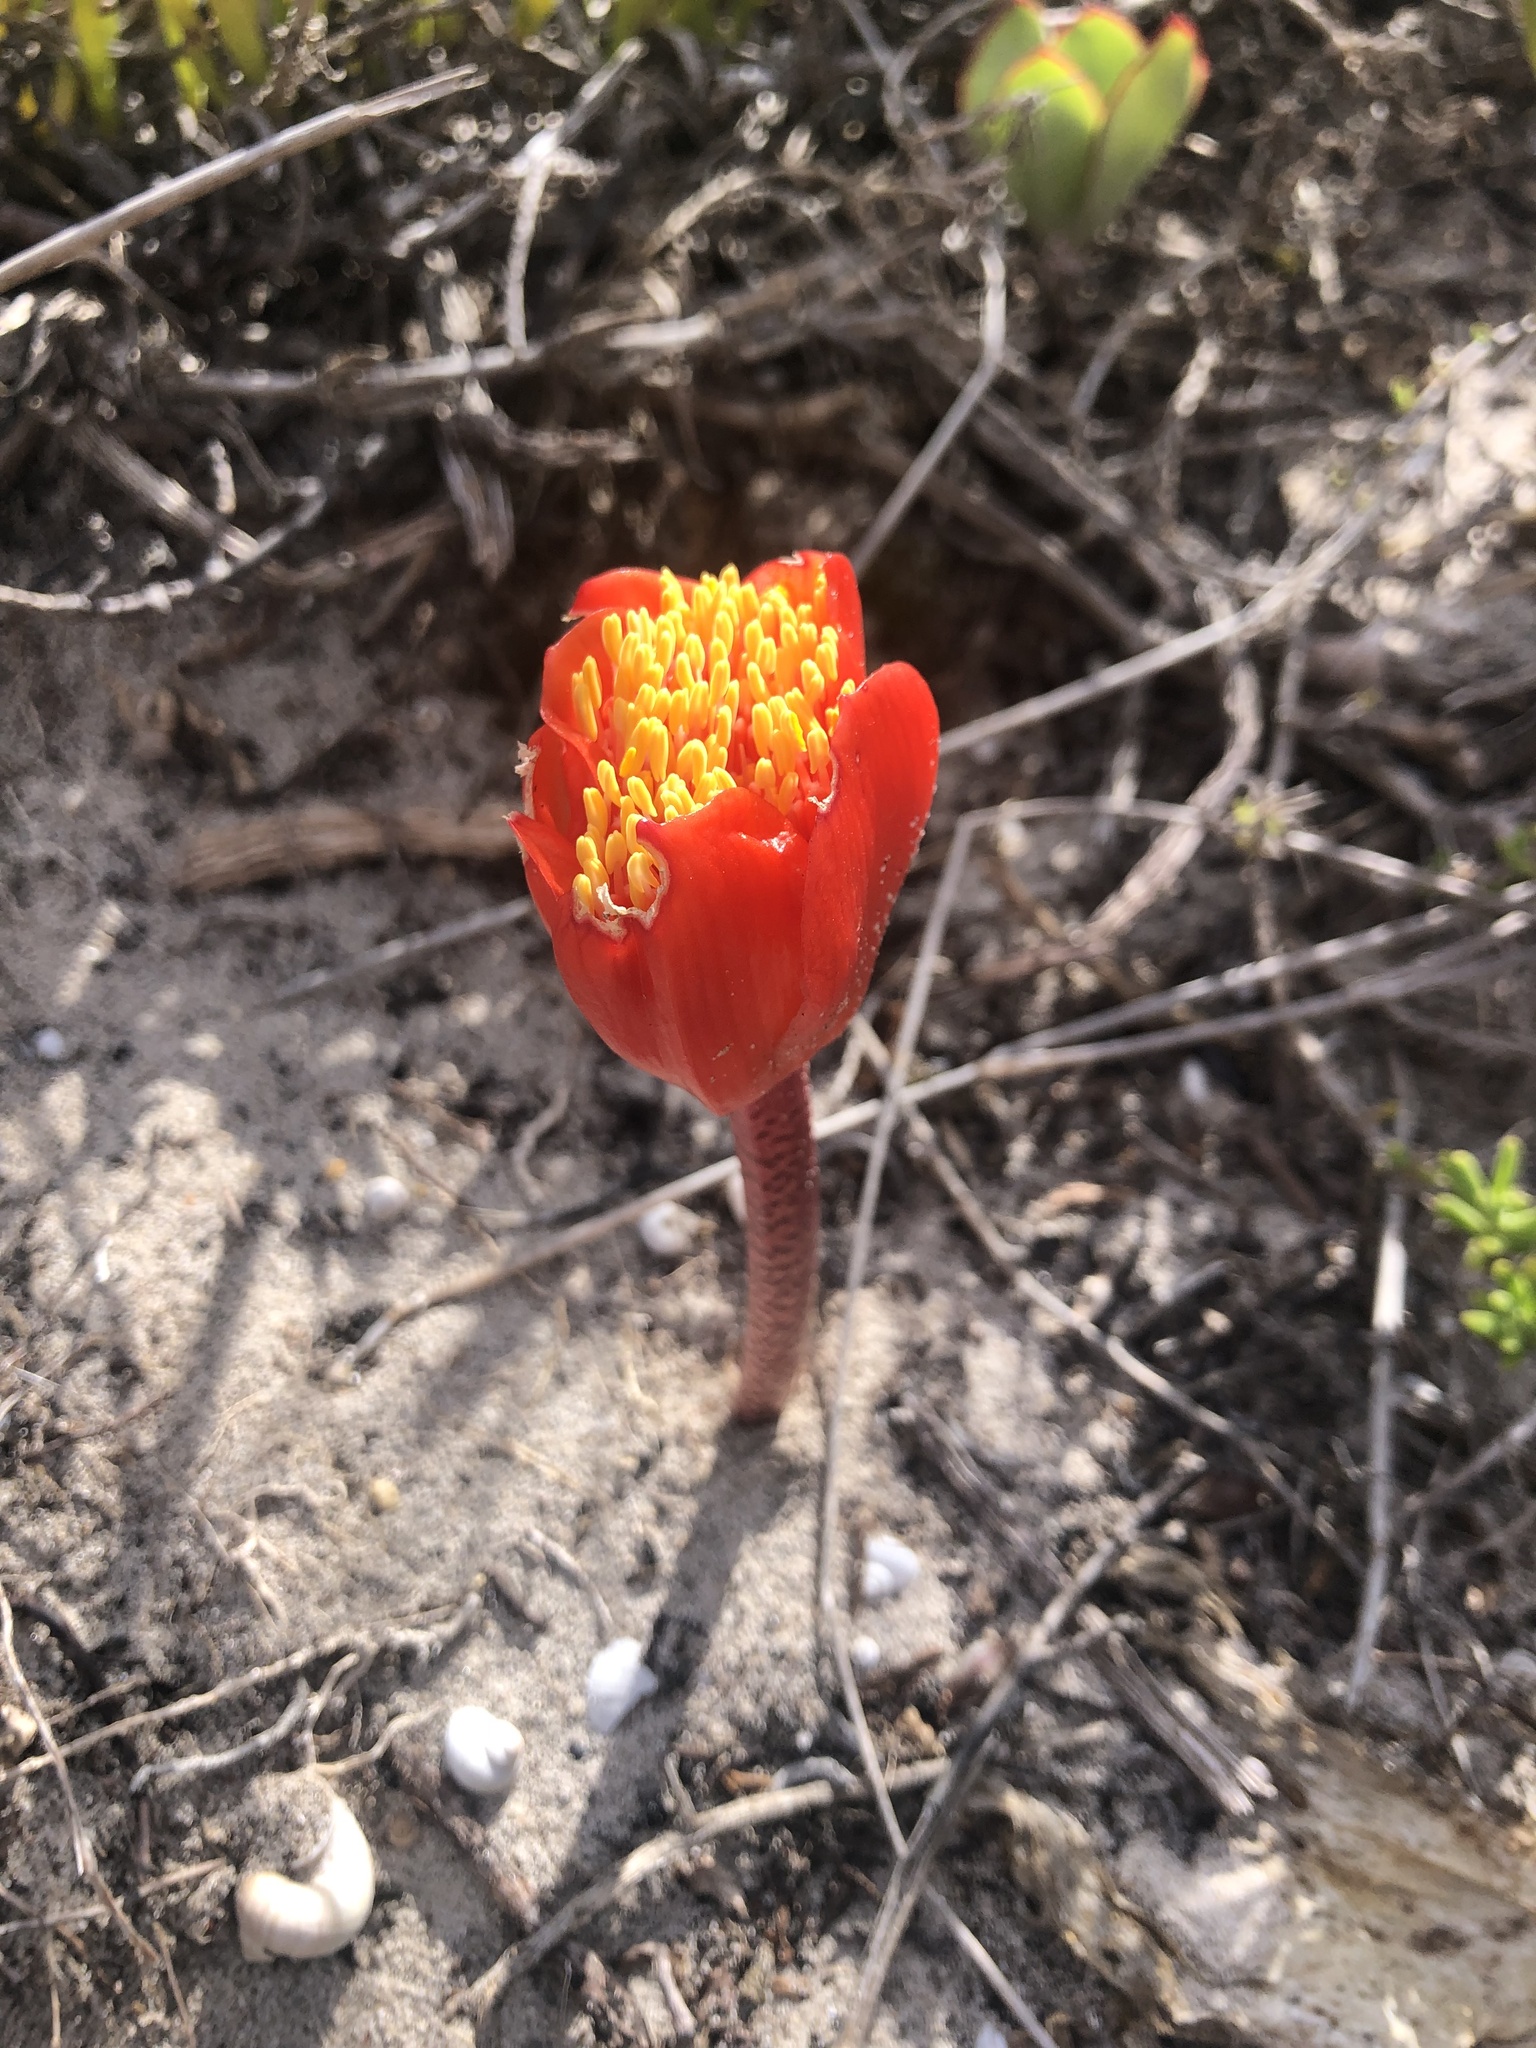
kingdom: Plantae
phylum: Tracheophyta
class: Liliopsida
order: Asparagales
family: Amaryllidaceae
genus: Haemanthus
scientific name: Haemanthus coccineus
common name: Cape-tulip
